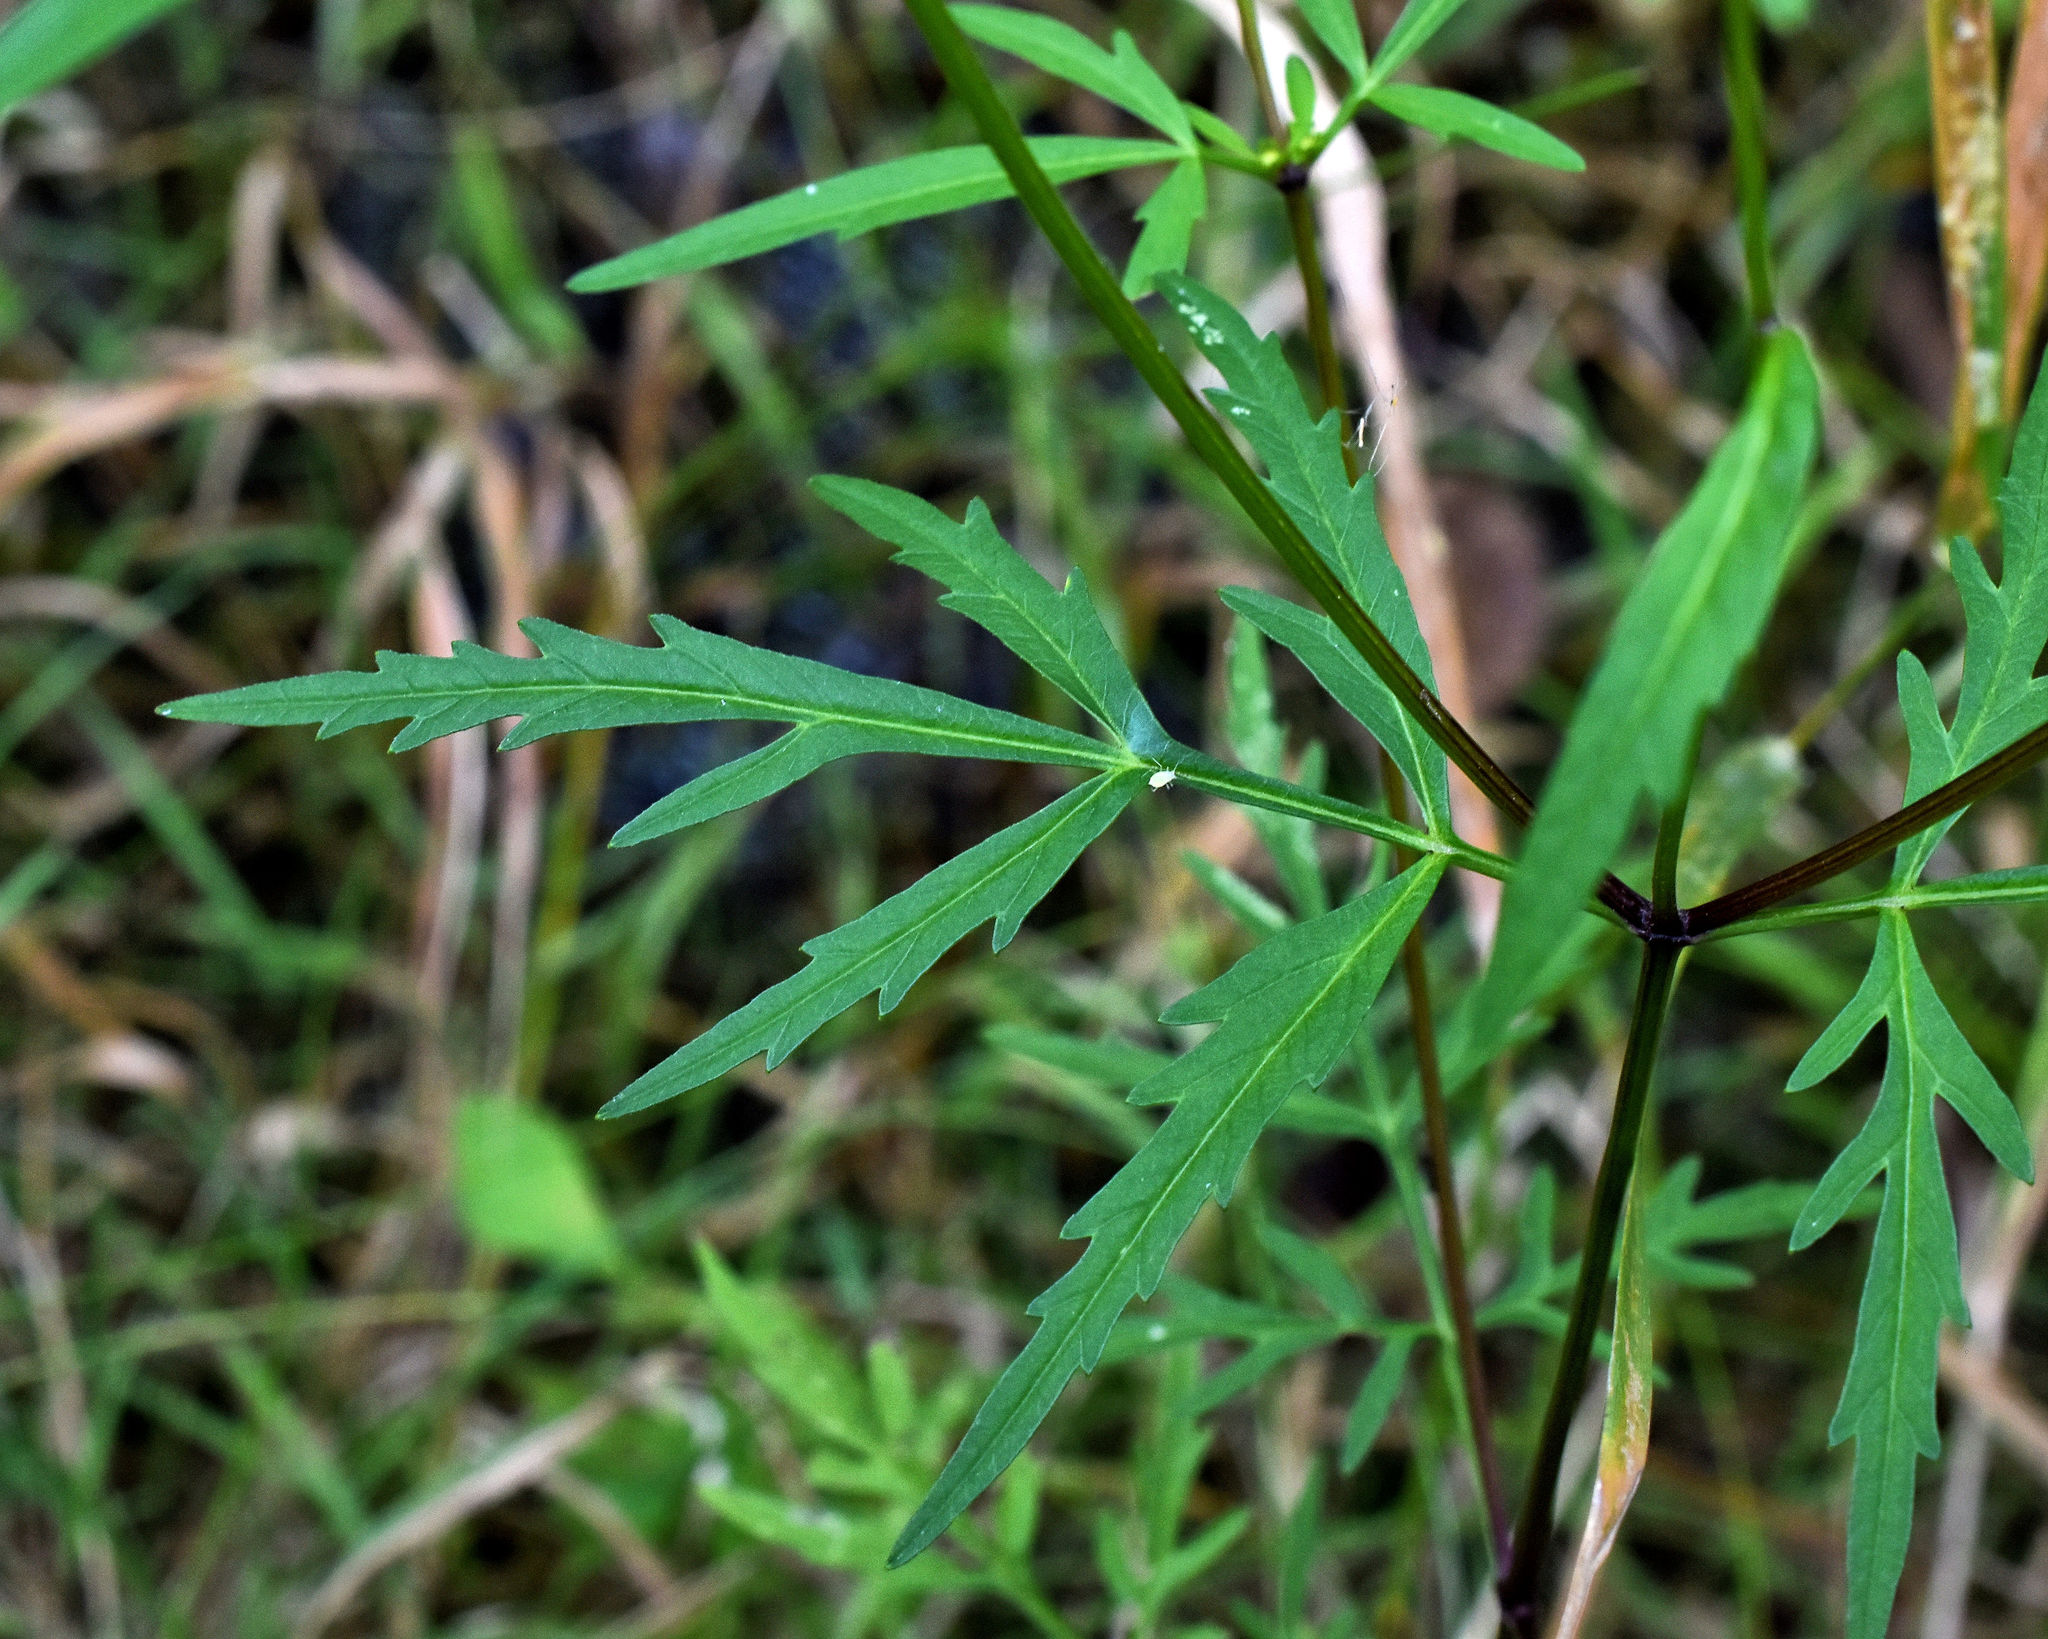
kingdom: Plantae
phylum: Tracheophyta
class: Magnoliopsida
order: Asterales
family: Asteraceae
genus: Bidens
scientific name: Bidens trichosperma
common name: Crowned beggarticks
